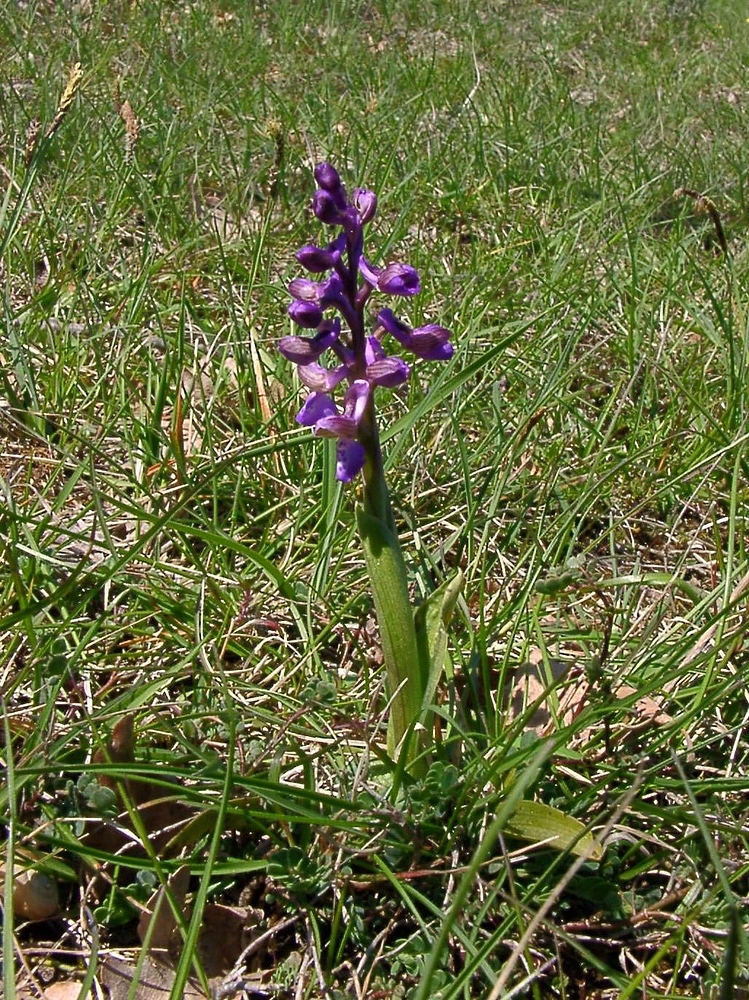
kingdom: Plantae
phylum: Tracheophyta
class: Liliopsida
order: Asparagales
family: Orchidaceae
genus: Anacamptis
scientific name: Anacamptis morio
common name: Green-winged orchid
